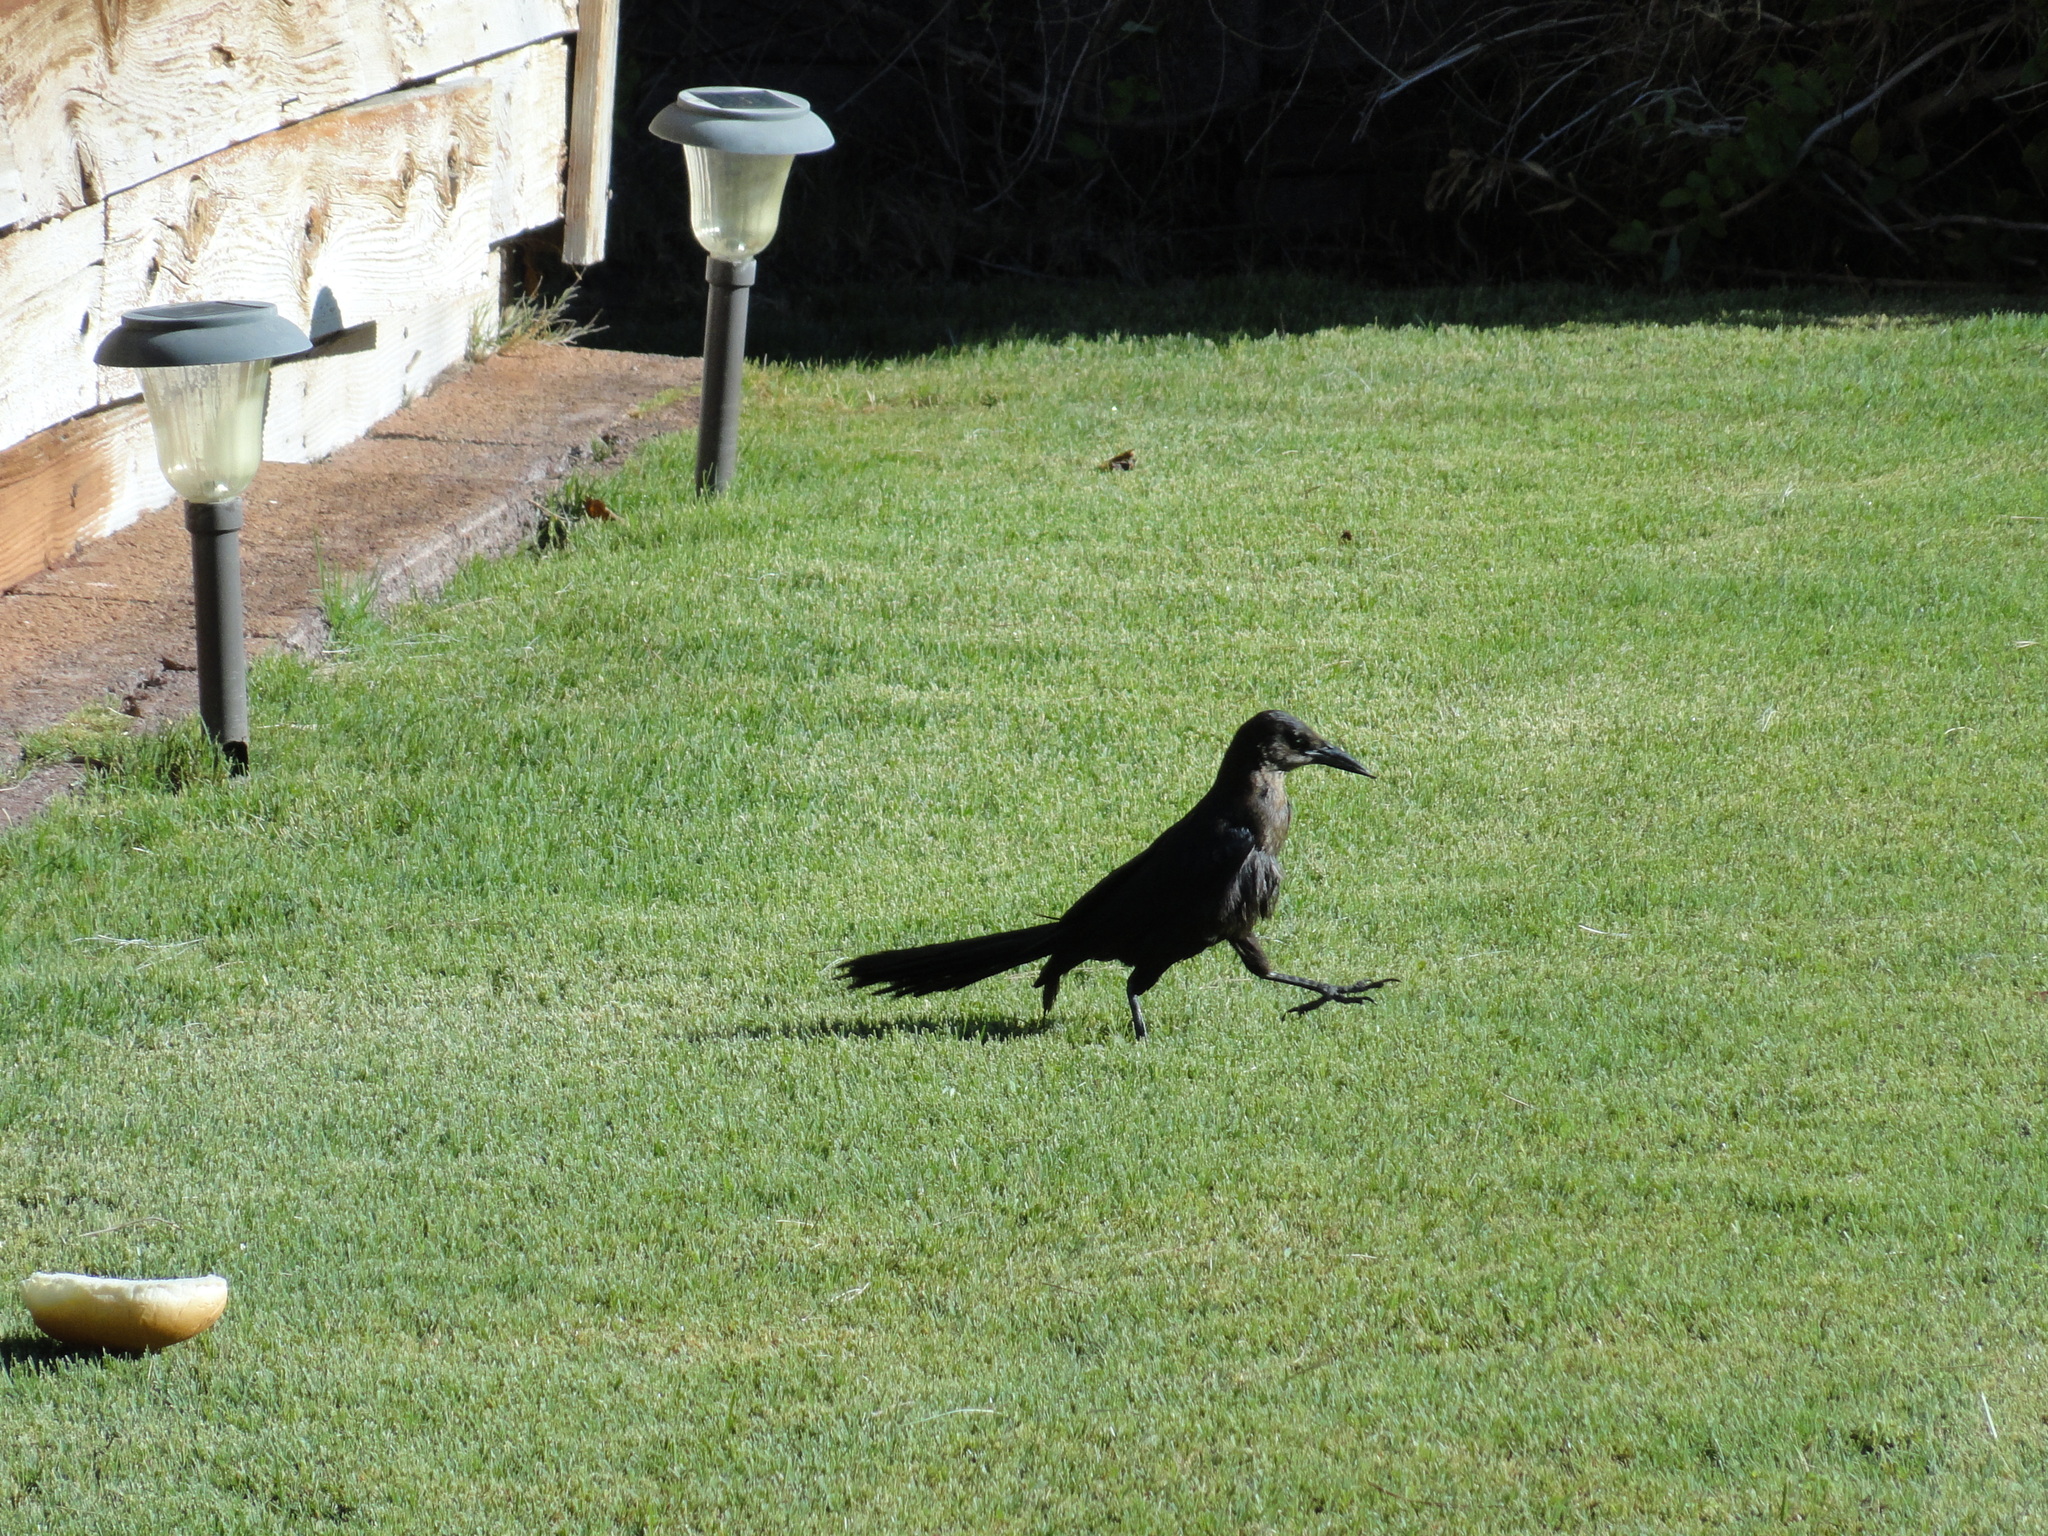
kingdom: Animalia
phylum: Chordata
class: Aves
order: Passeriformes
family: Icteridae
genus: Quiscalus
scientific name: Quiscalus mexicanus
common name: Great-tailed grackle
